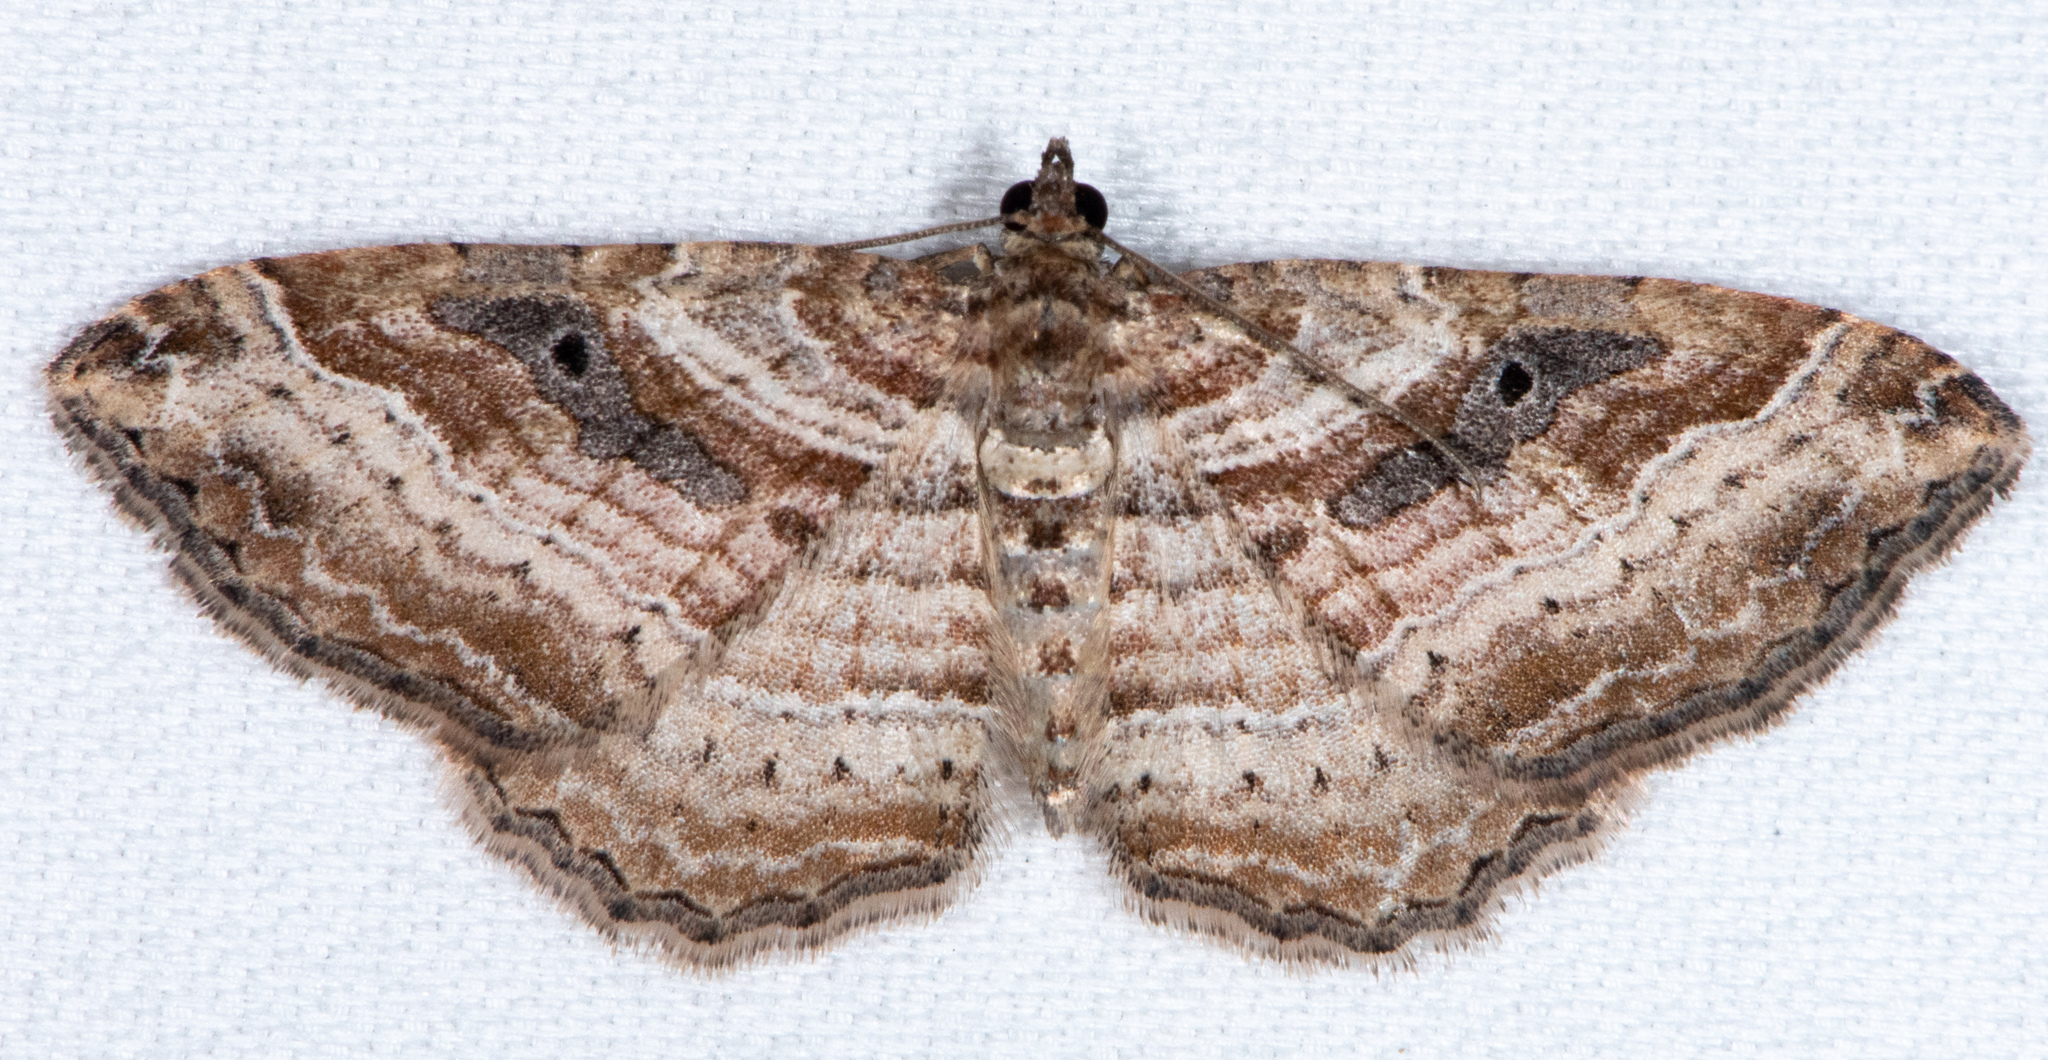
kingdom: Animalia
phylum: Arthropoda
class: Insecta
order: Lepidoptera
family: Geometridae
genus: Costaconvexa
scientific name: Costaconvexa centrostrigaria
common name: Bent-line carpet
